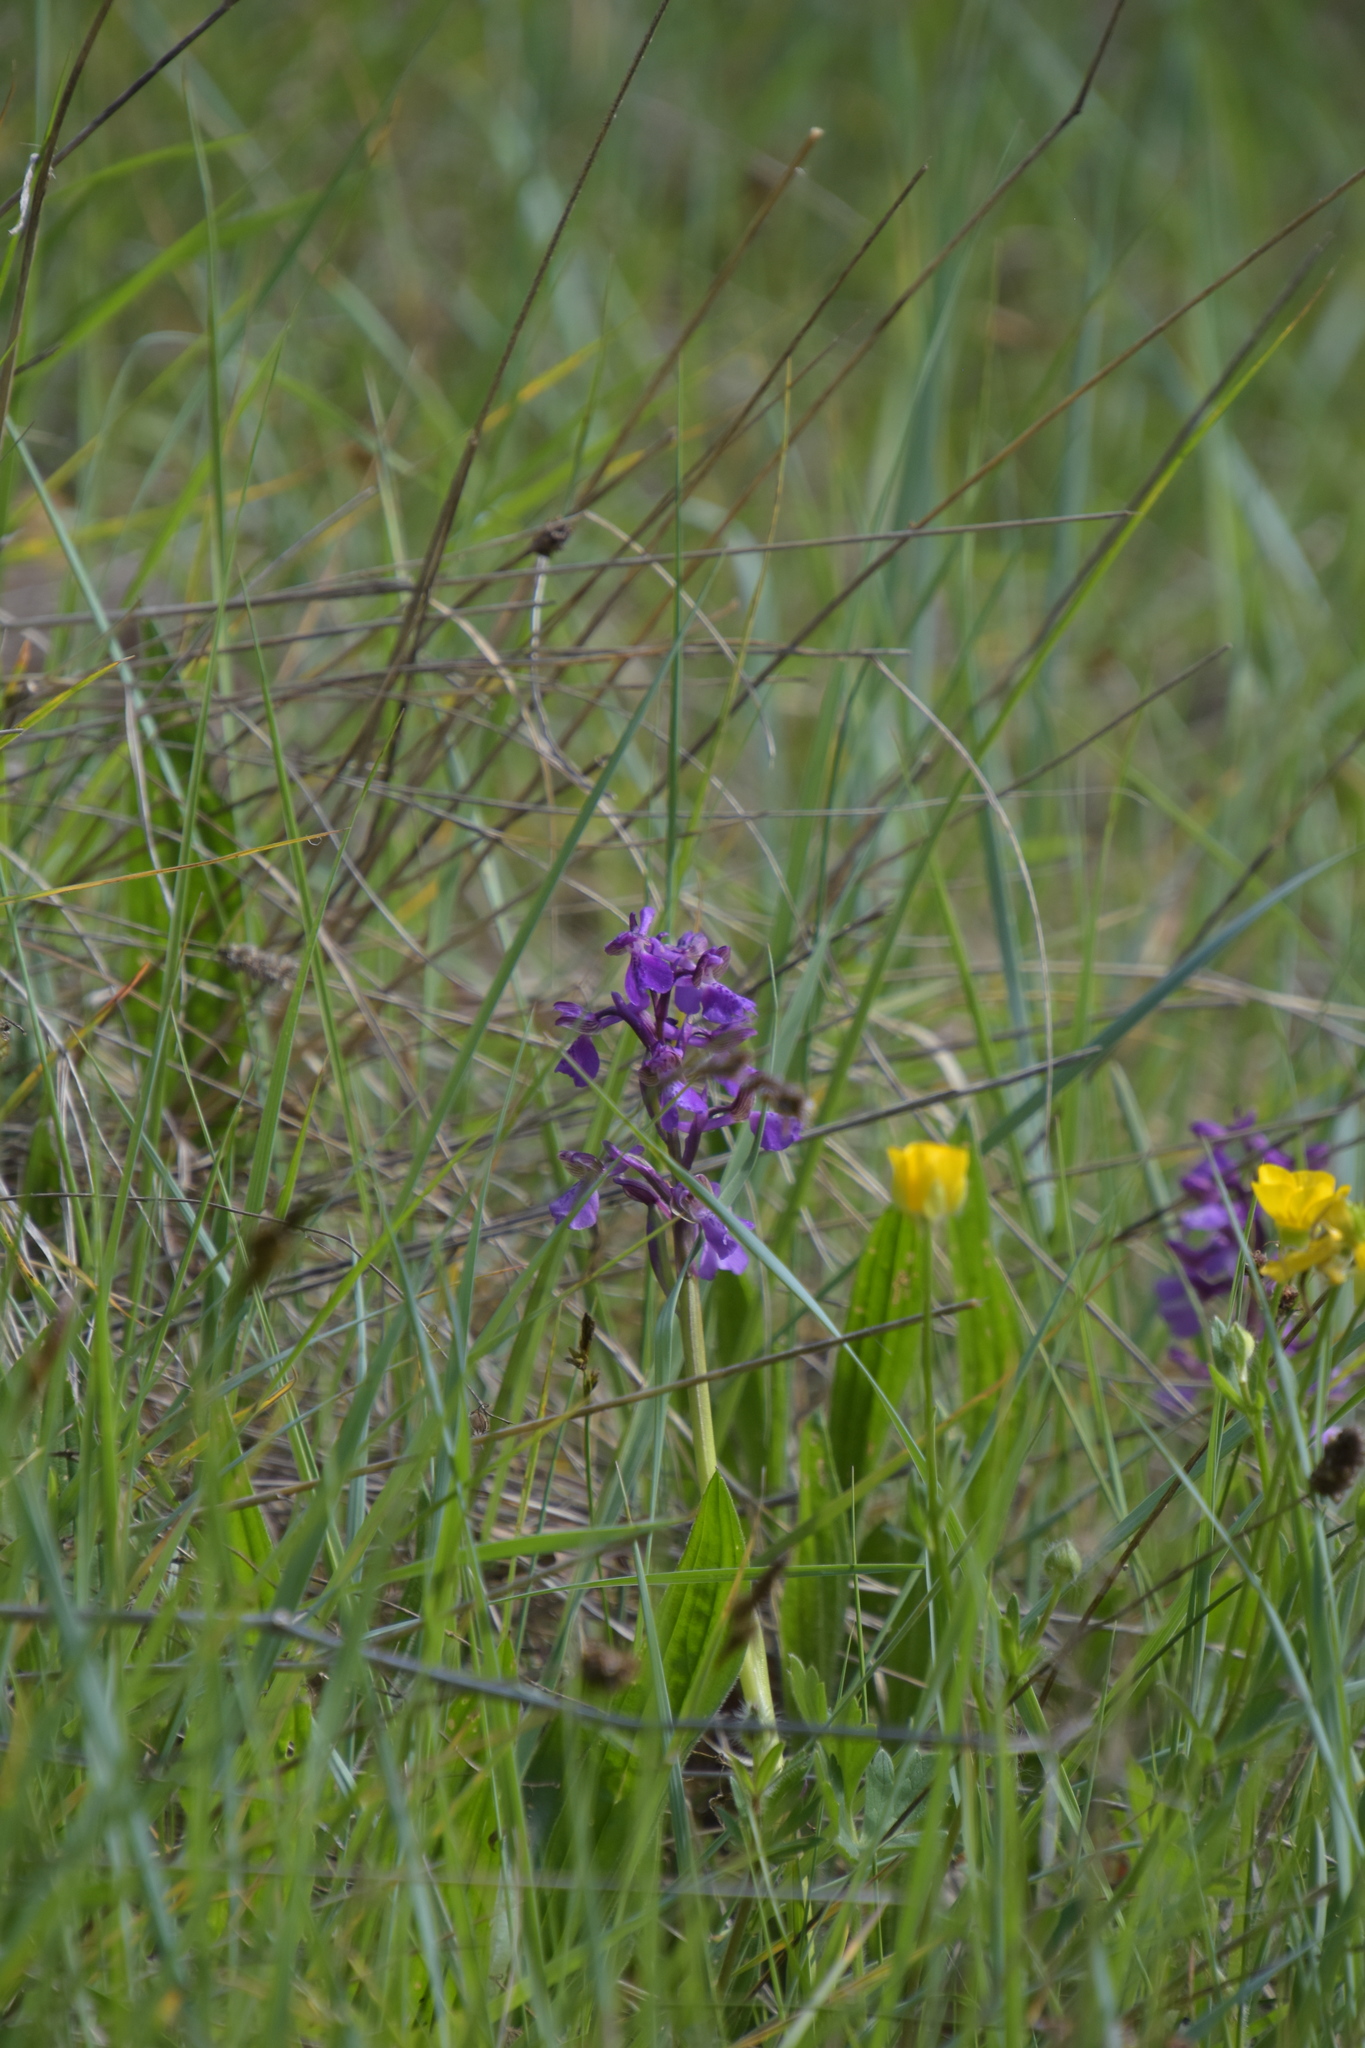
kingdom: Plantae
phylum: Tracheophyta
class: Liliopsida
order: Asparagales
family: Orchidaceae
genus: Anacamptis
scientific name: Anacamptis morio
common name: Green-winged orchid
